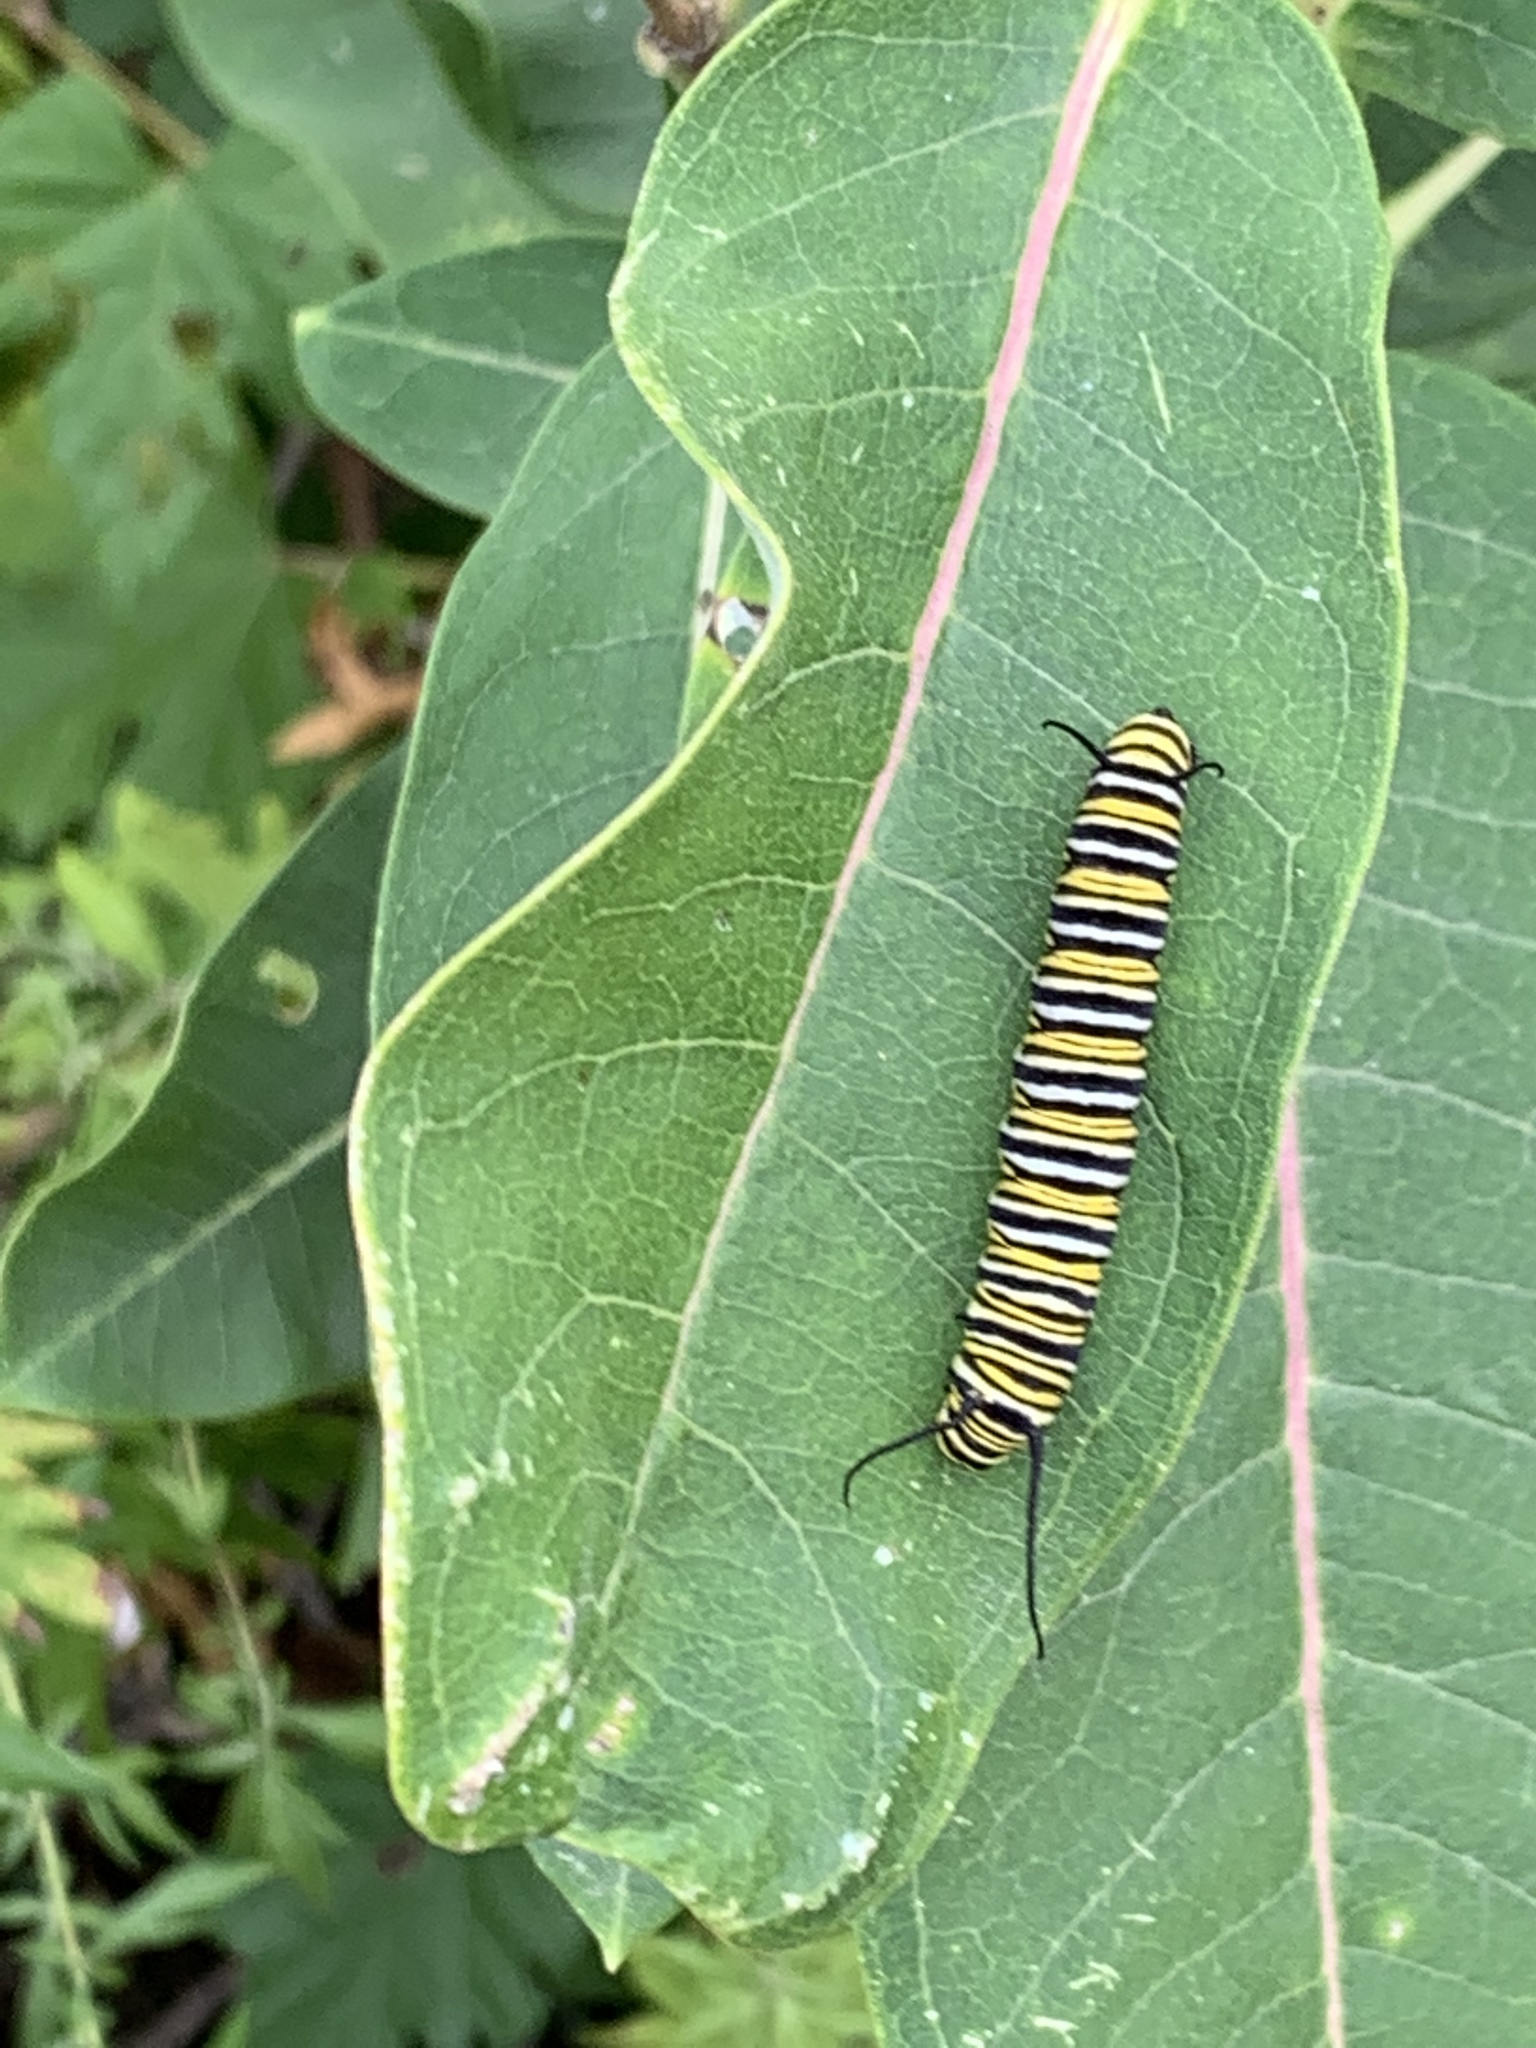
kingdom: Animalia
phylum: Arthropoda
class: Insecta
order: Lepidoptera
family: Nymphalidae
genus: Danaus
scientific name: Danaus plexippus
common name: Monarch
